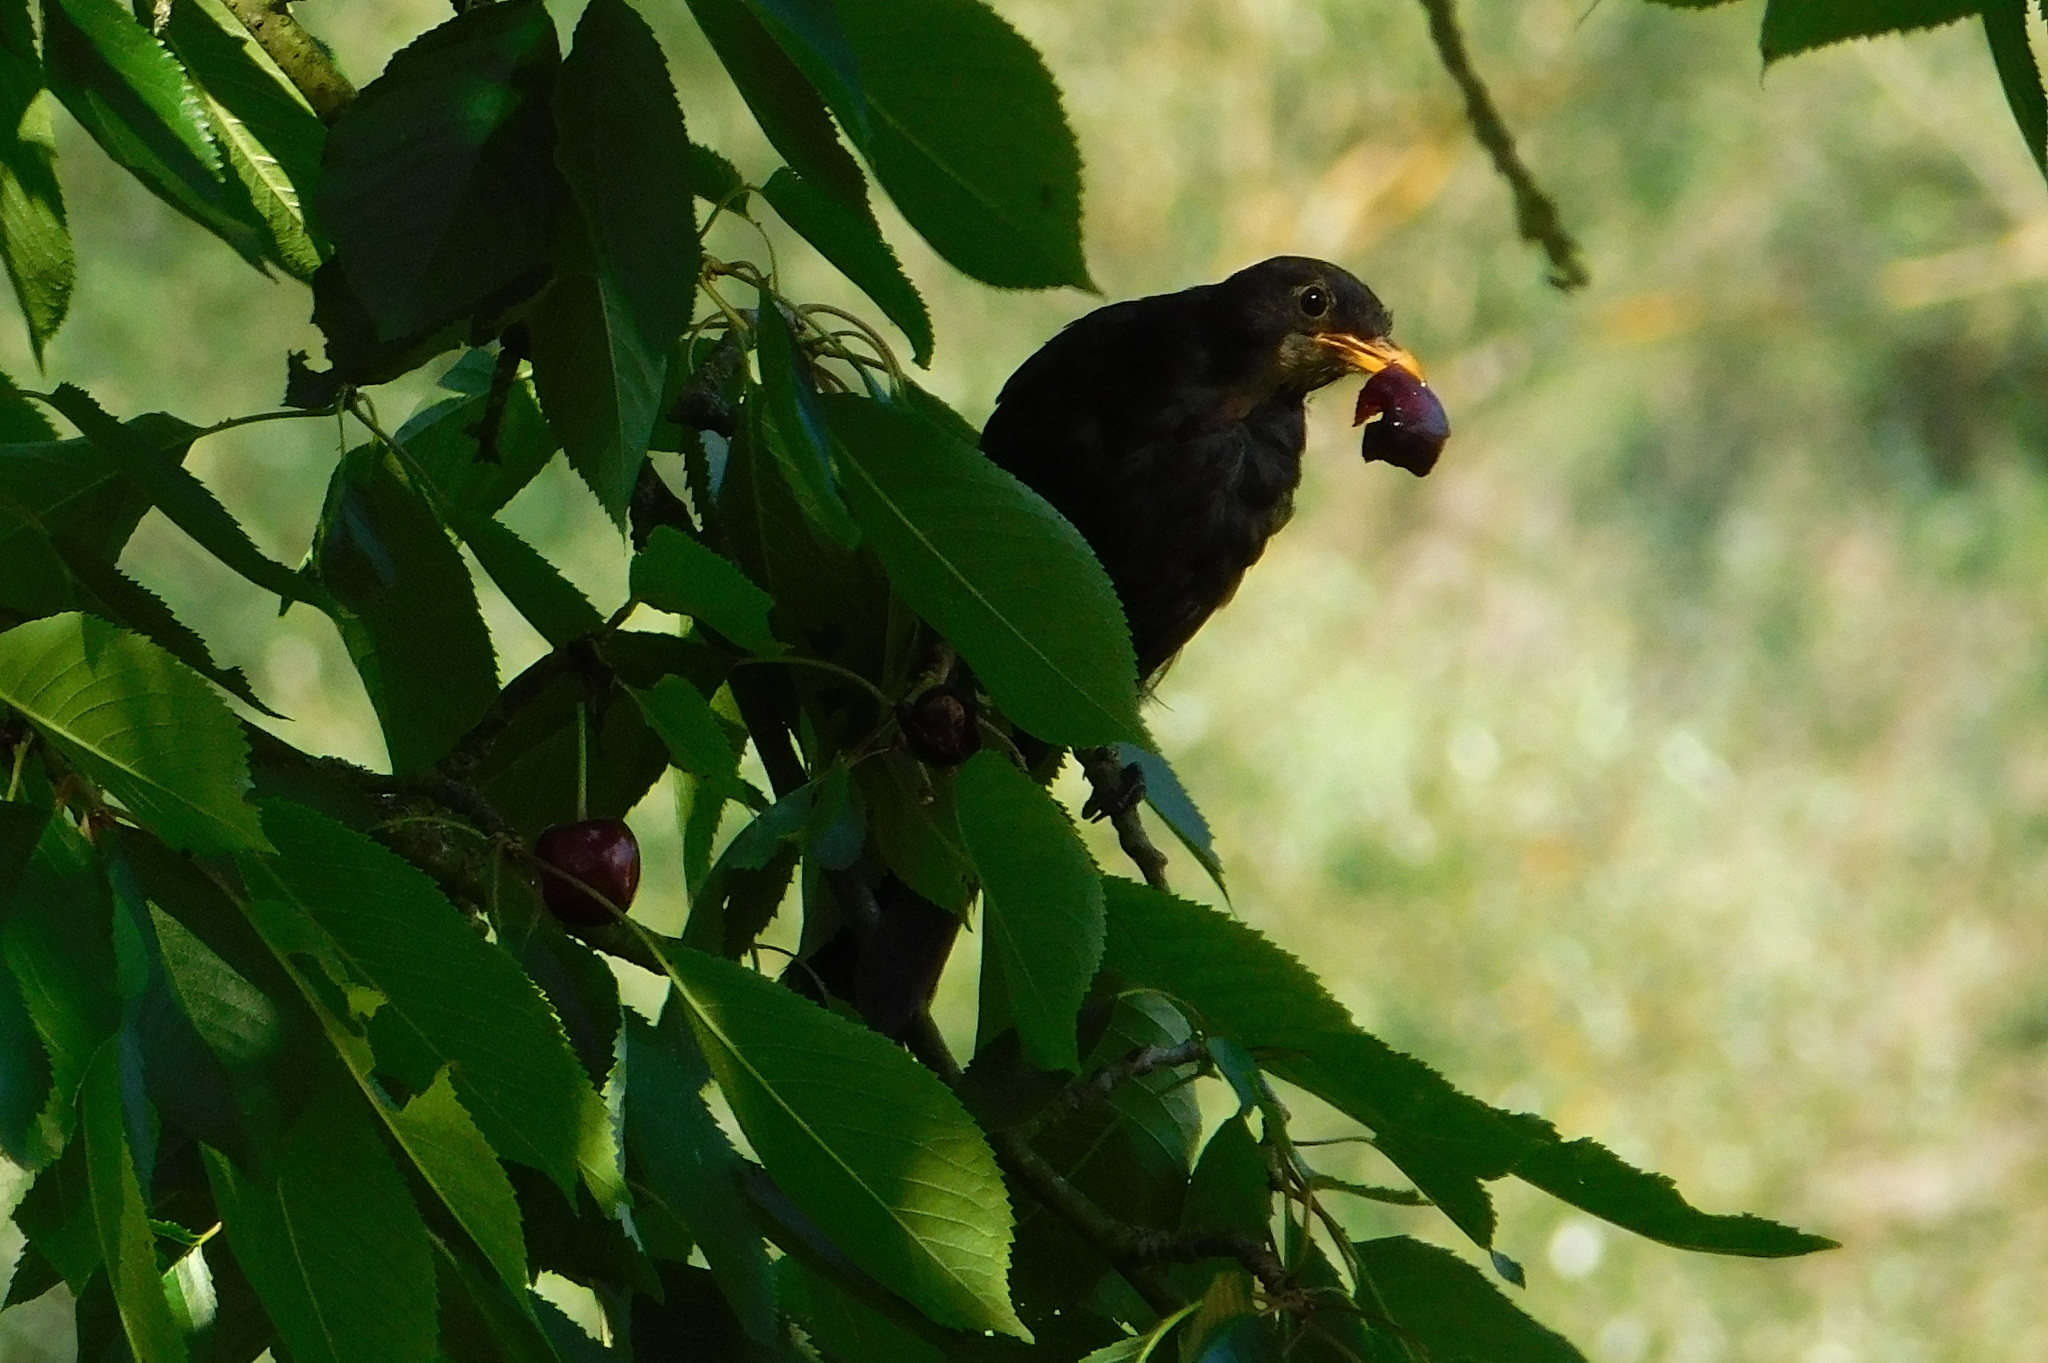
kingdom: Animalia
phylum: Chordata
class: Aves
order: Passeriformes
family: Turdidae
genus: Turdus
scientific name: Turdus merula
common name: Common blackbird
